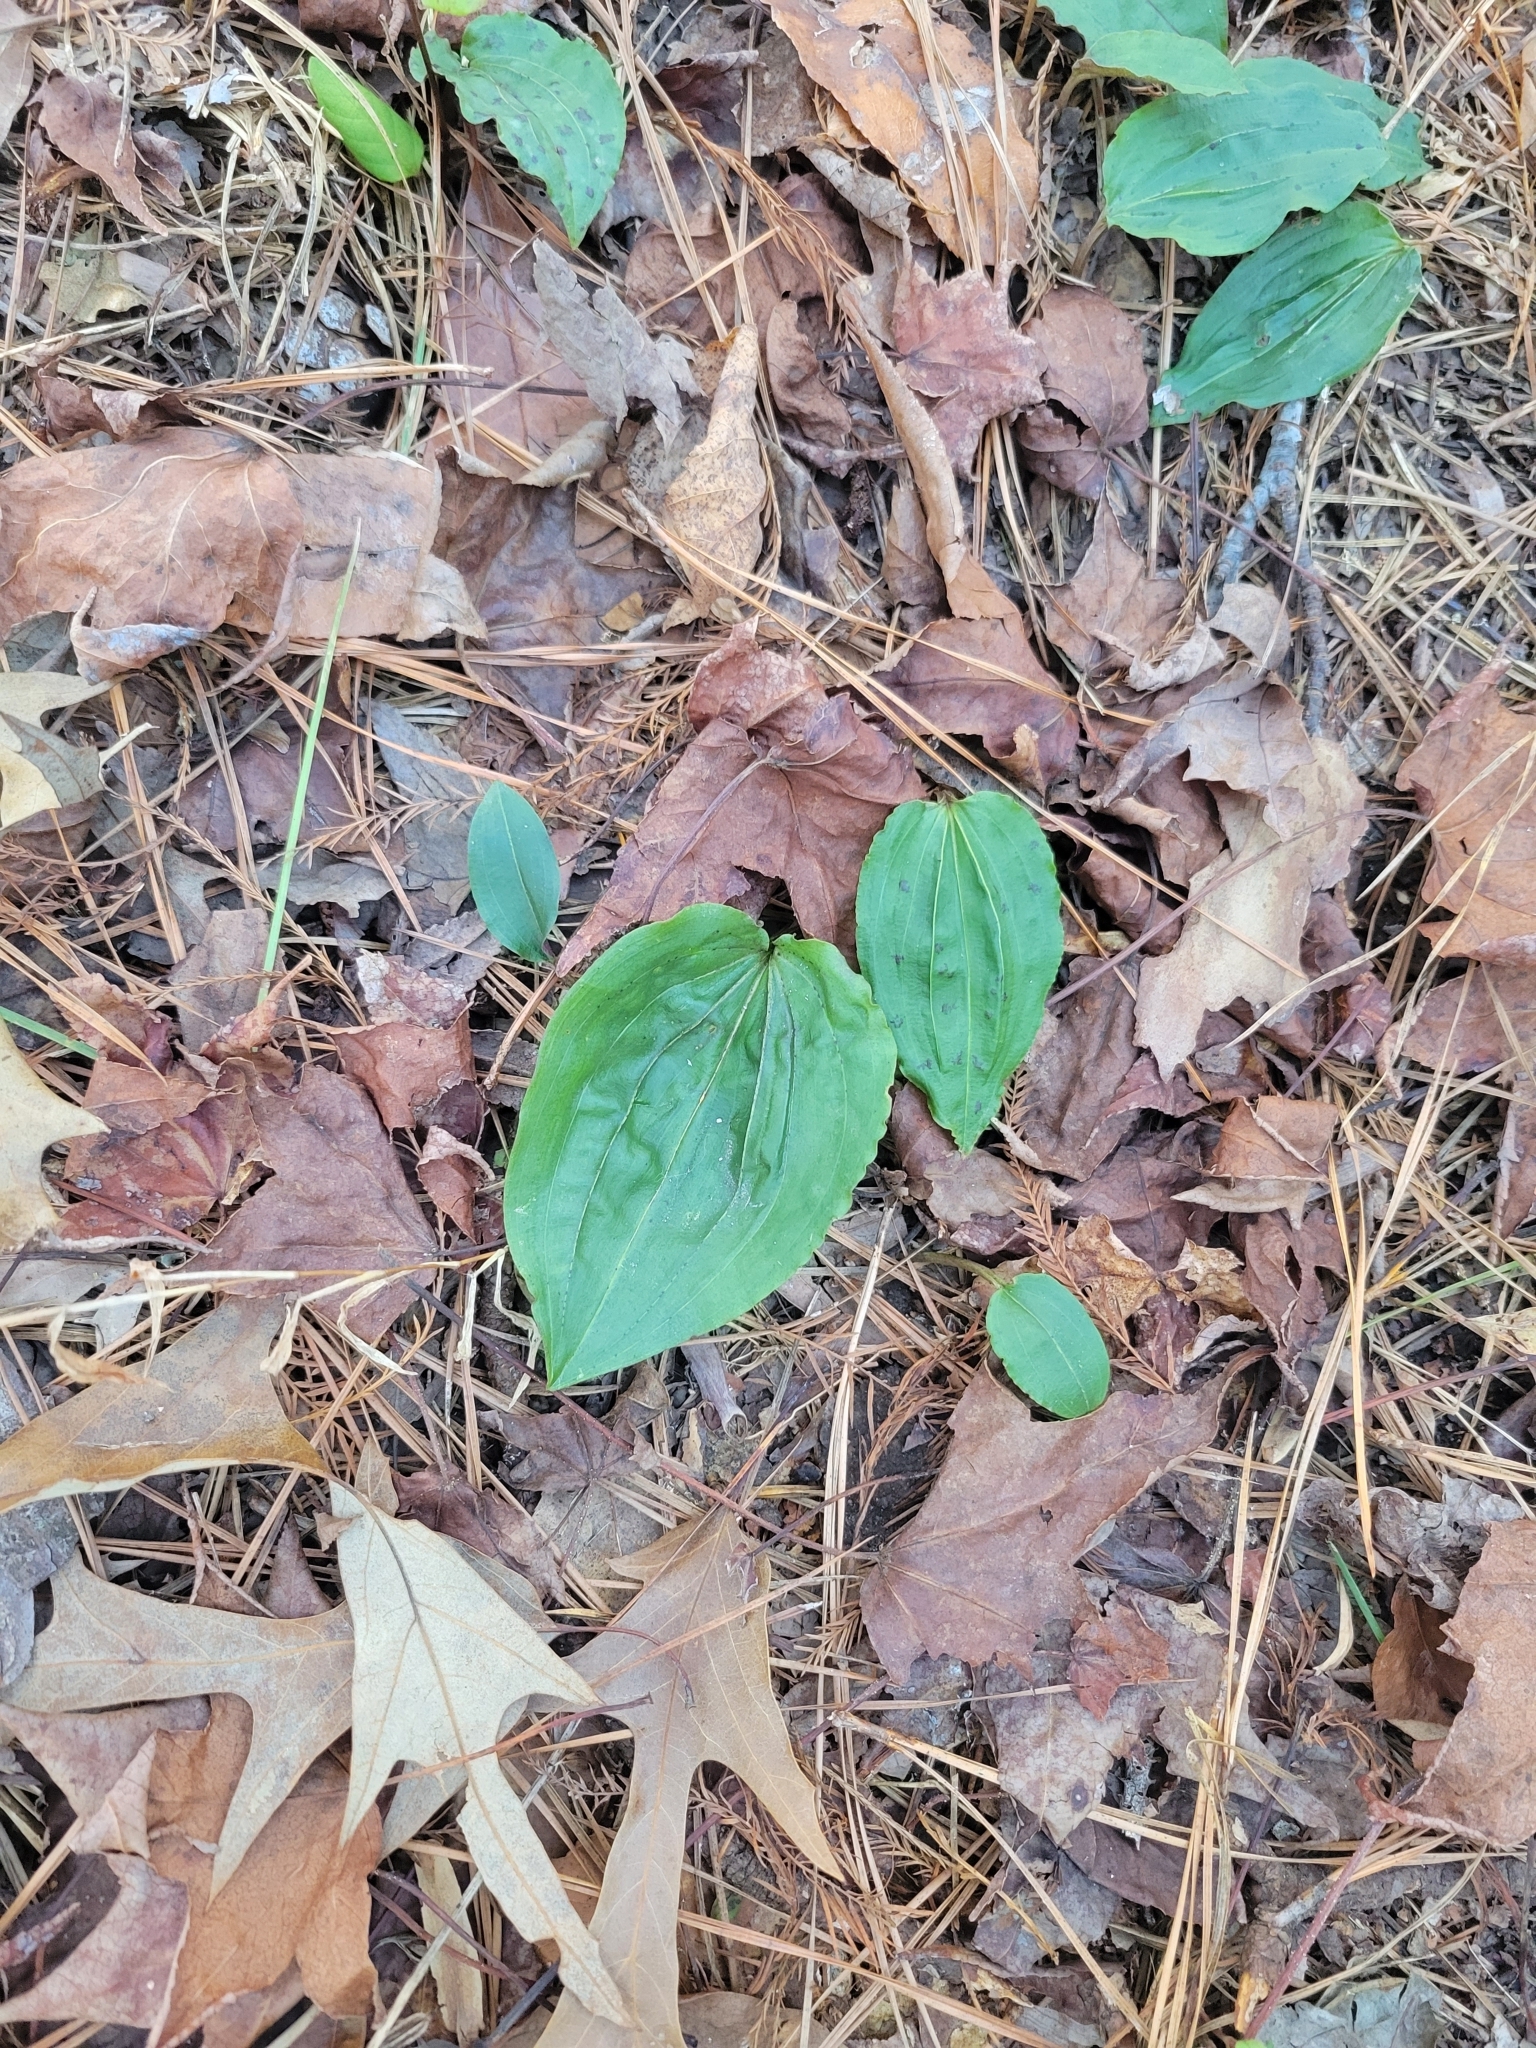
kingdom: Plantae
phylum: Tracheophyta
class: Liliopsida
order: Asparagales
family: Orchidaceae
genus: Tipularia
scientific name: Tipularia discolor
